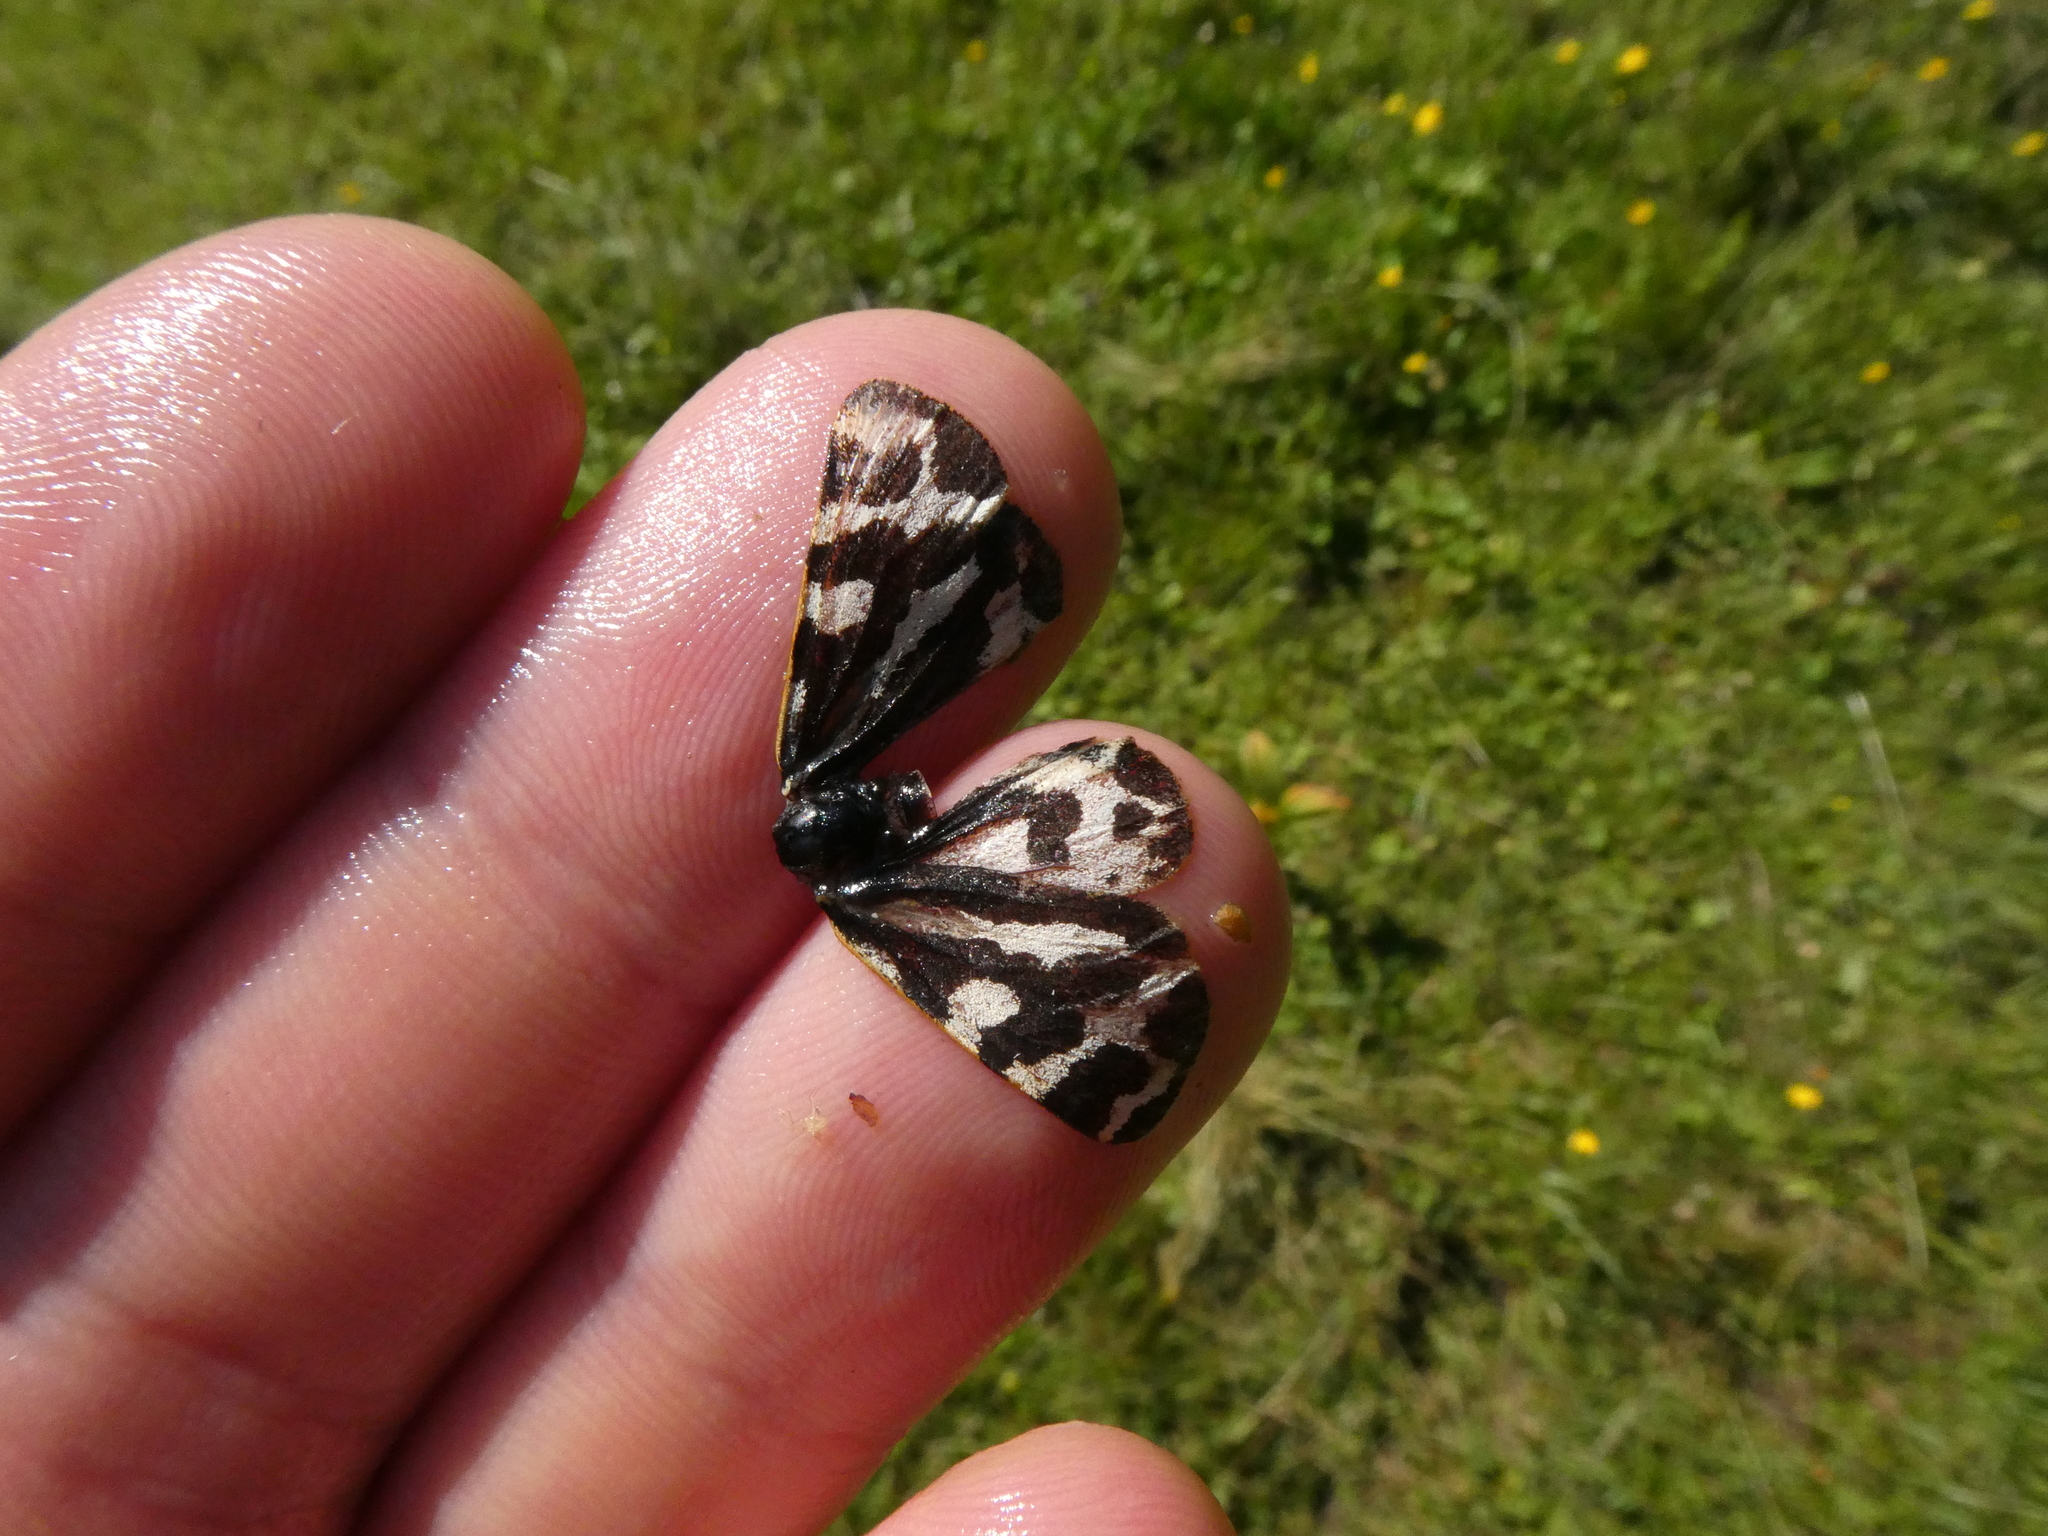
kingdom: Animalia
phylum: Arthropoda
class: Insecta
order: Lepidoptera
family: Erebidae
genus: Parasemia
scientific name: Parasemia plantaginis
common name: Wood tiger
